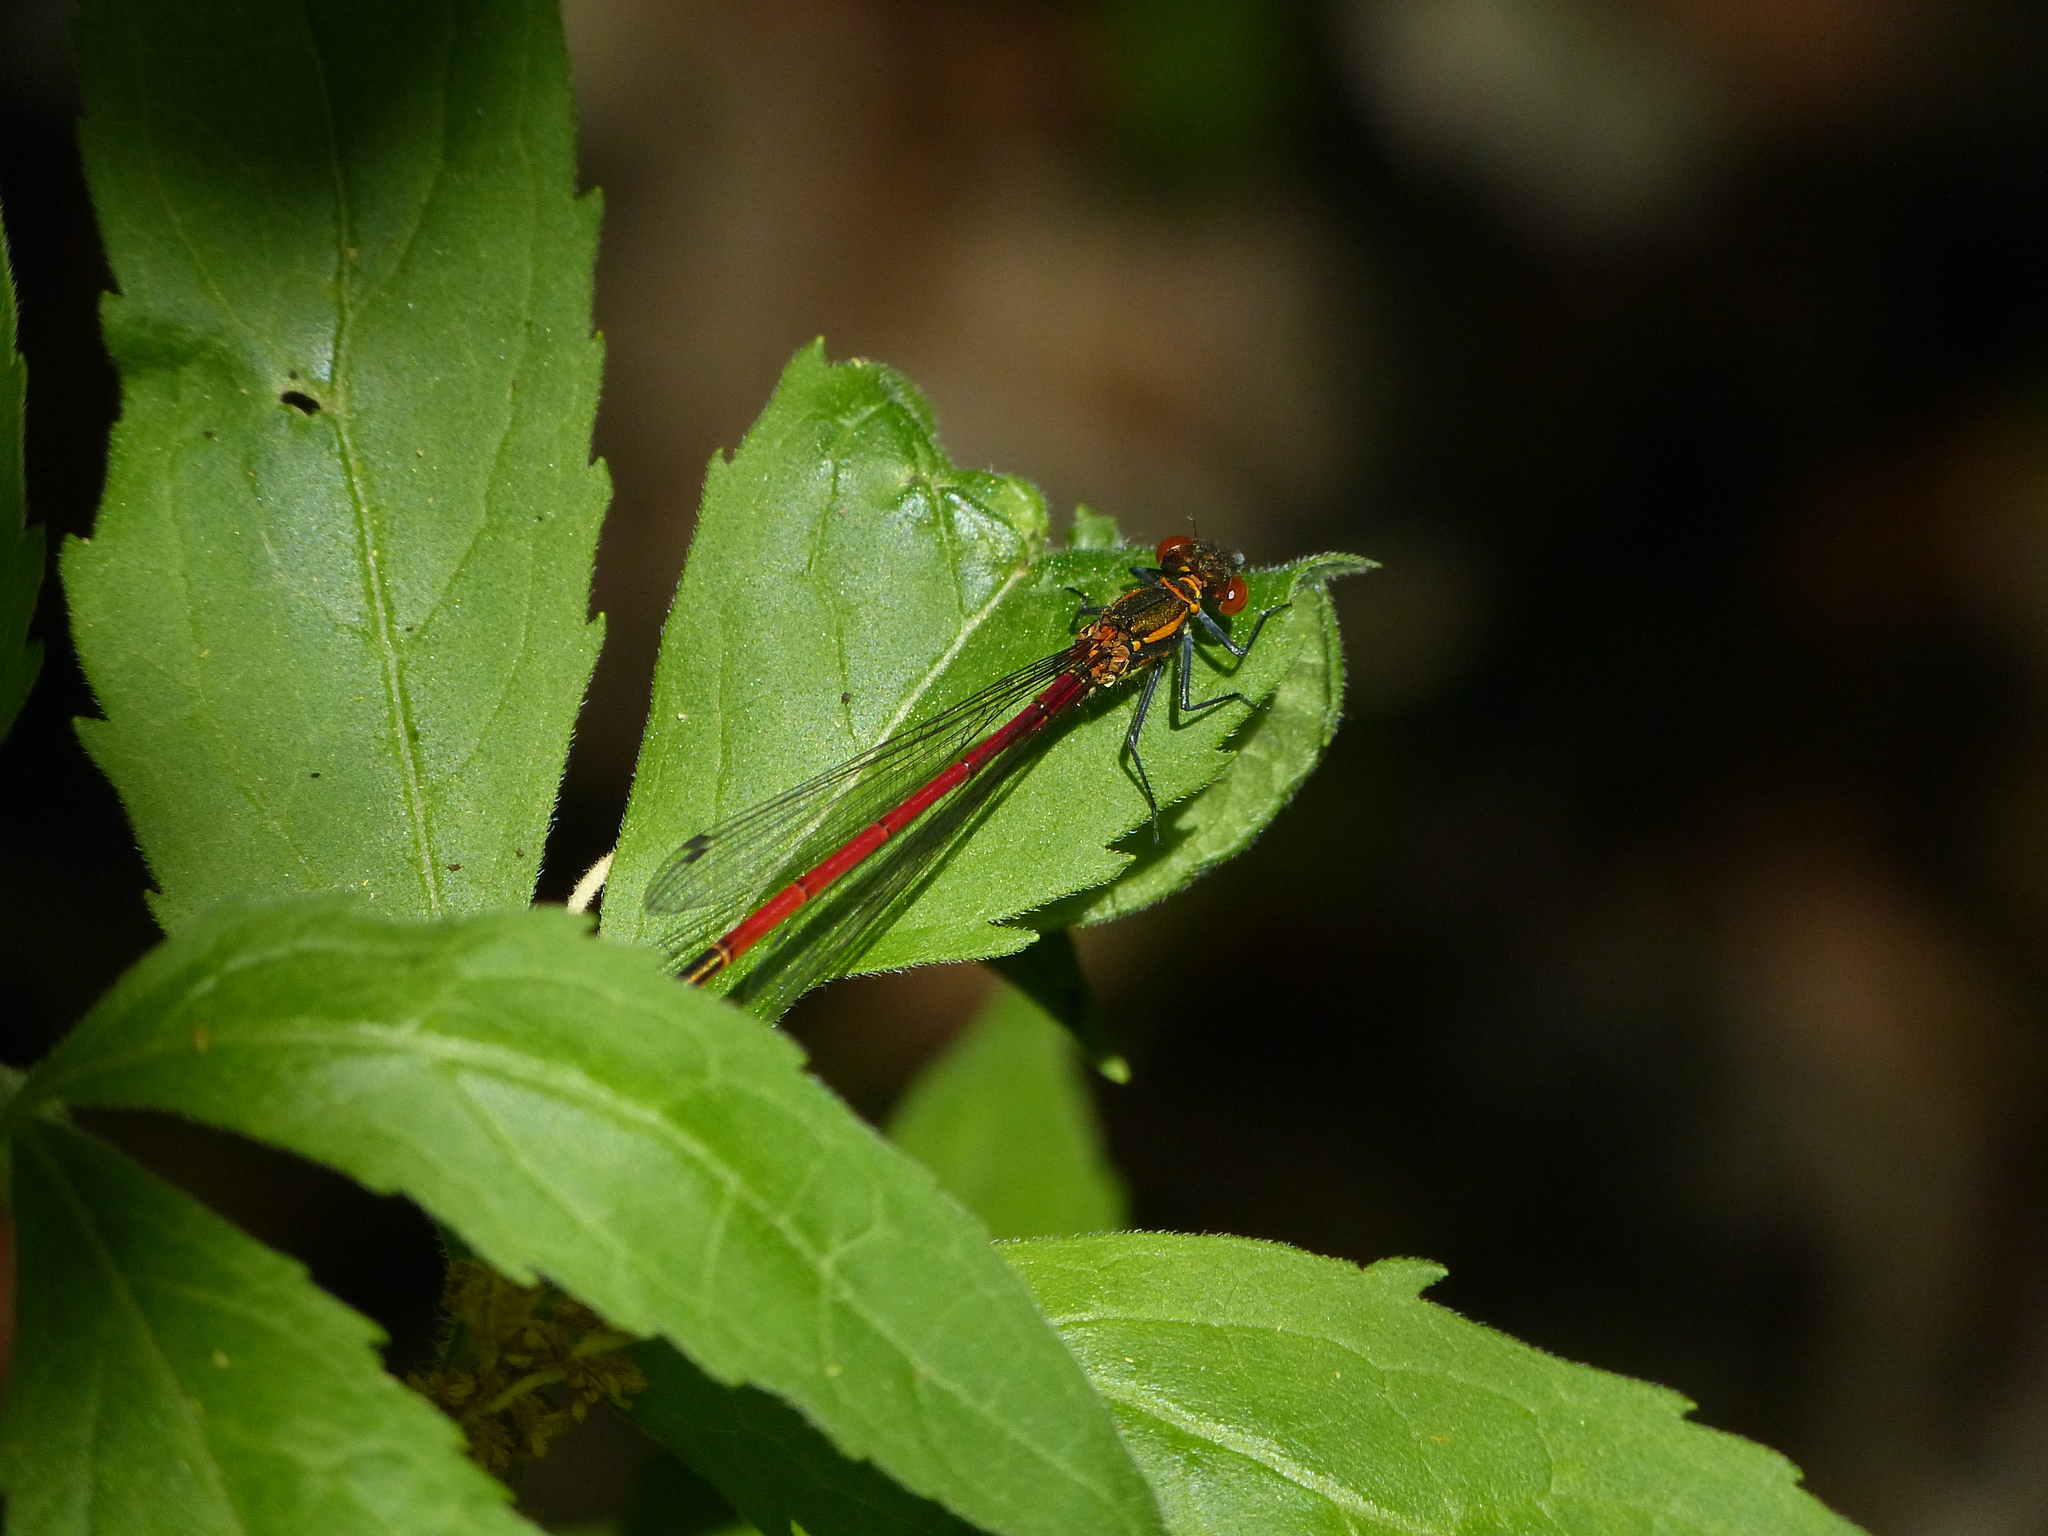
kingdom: Animalia
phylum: Arthropoda
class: Insecta
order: Odonata
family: Coenagrionidae
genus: Pyrrhosoma
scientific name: Pyrrhosoma nymphula
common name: Large red damsel
